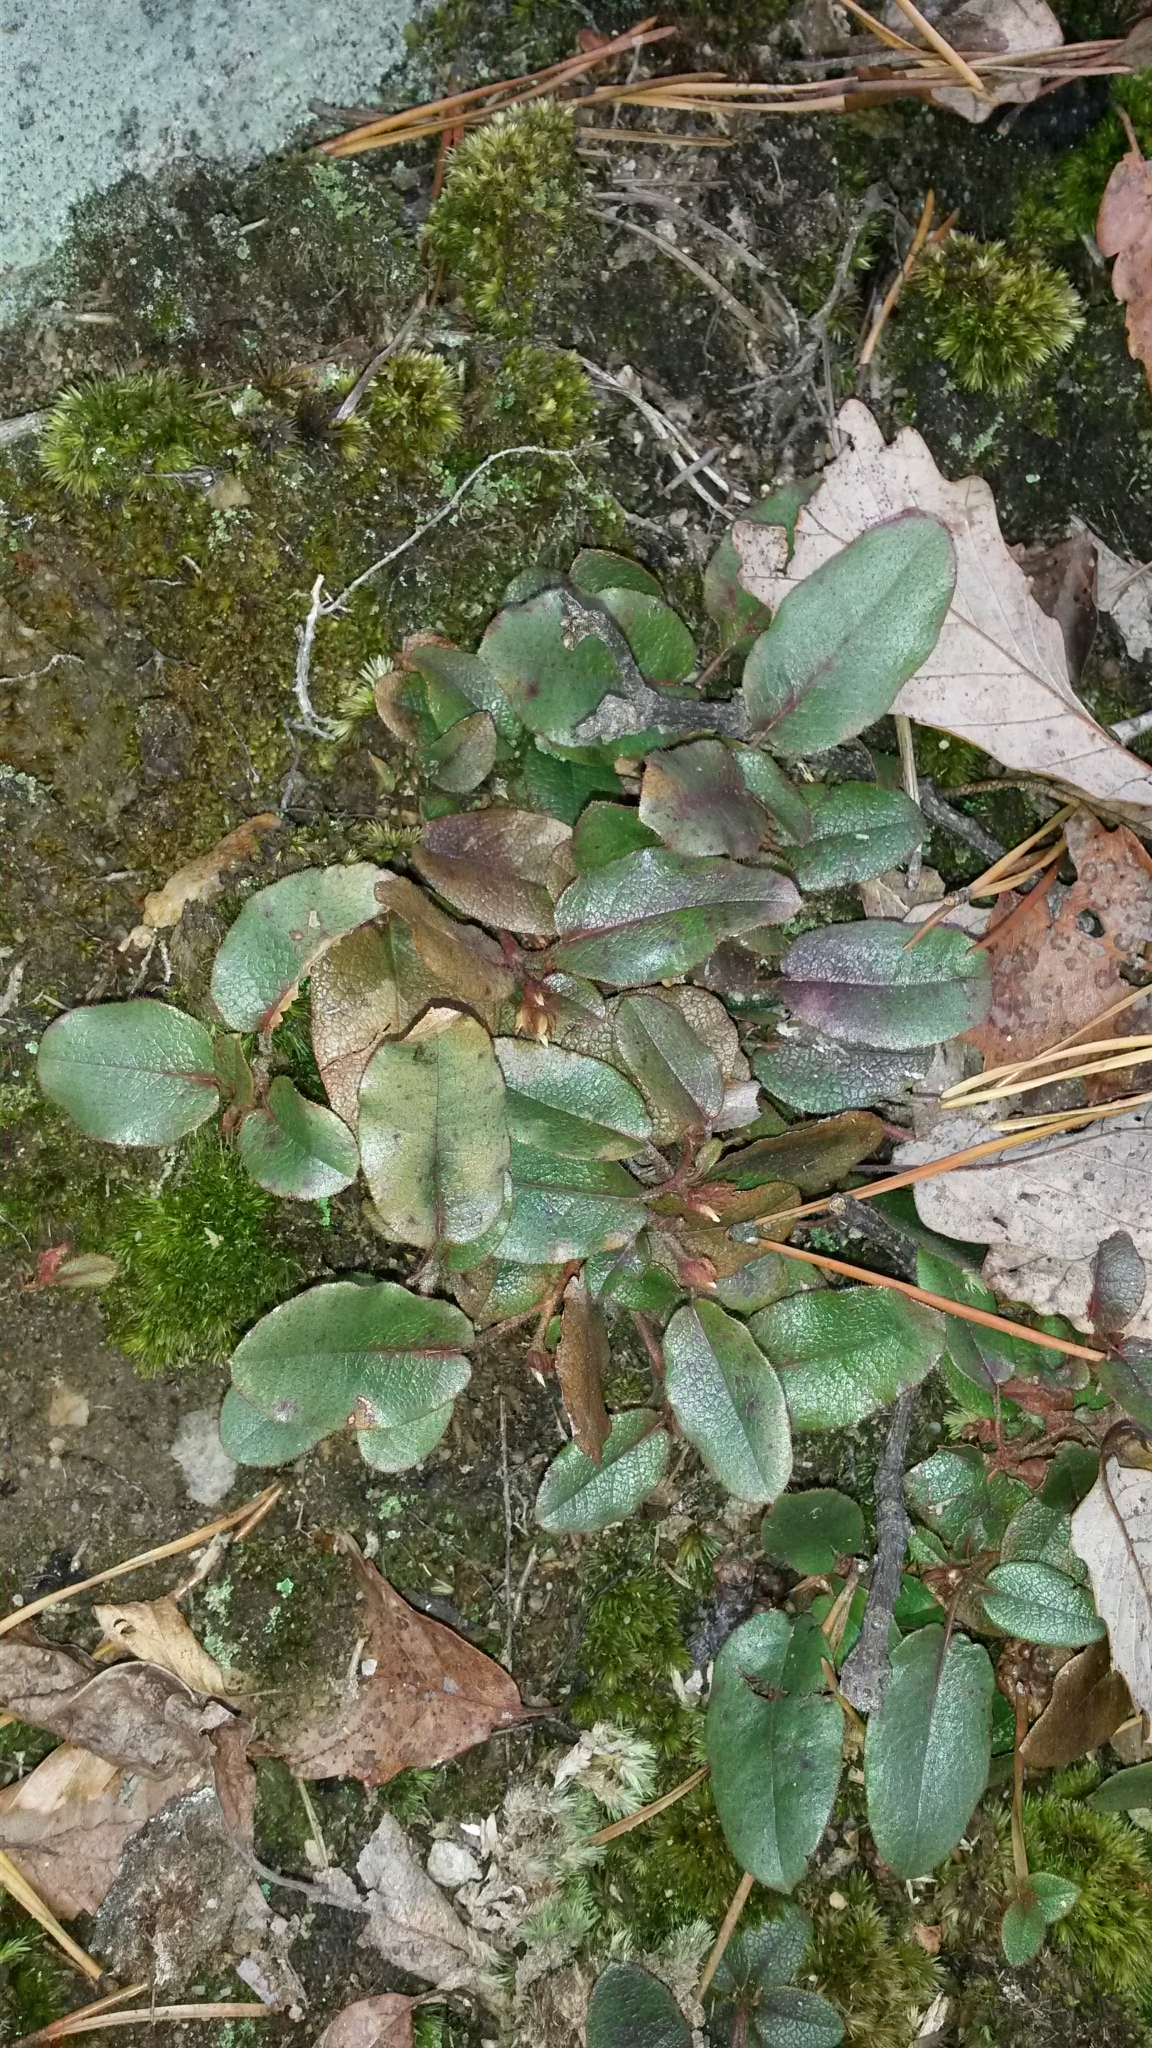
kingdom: Plantae
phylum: Tracheophyta
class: Magnoliopsida
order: Ericales
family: Ericaceae
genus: Epigaea
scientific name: Epigaea repens
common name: Gravelroot
